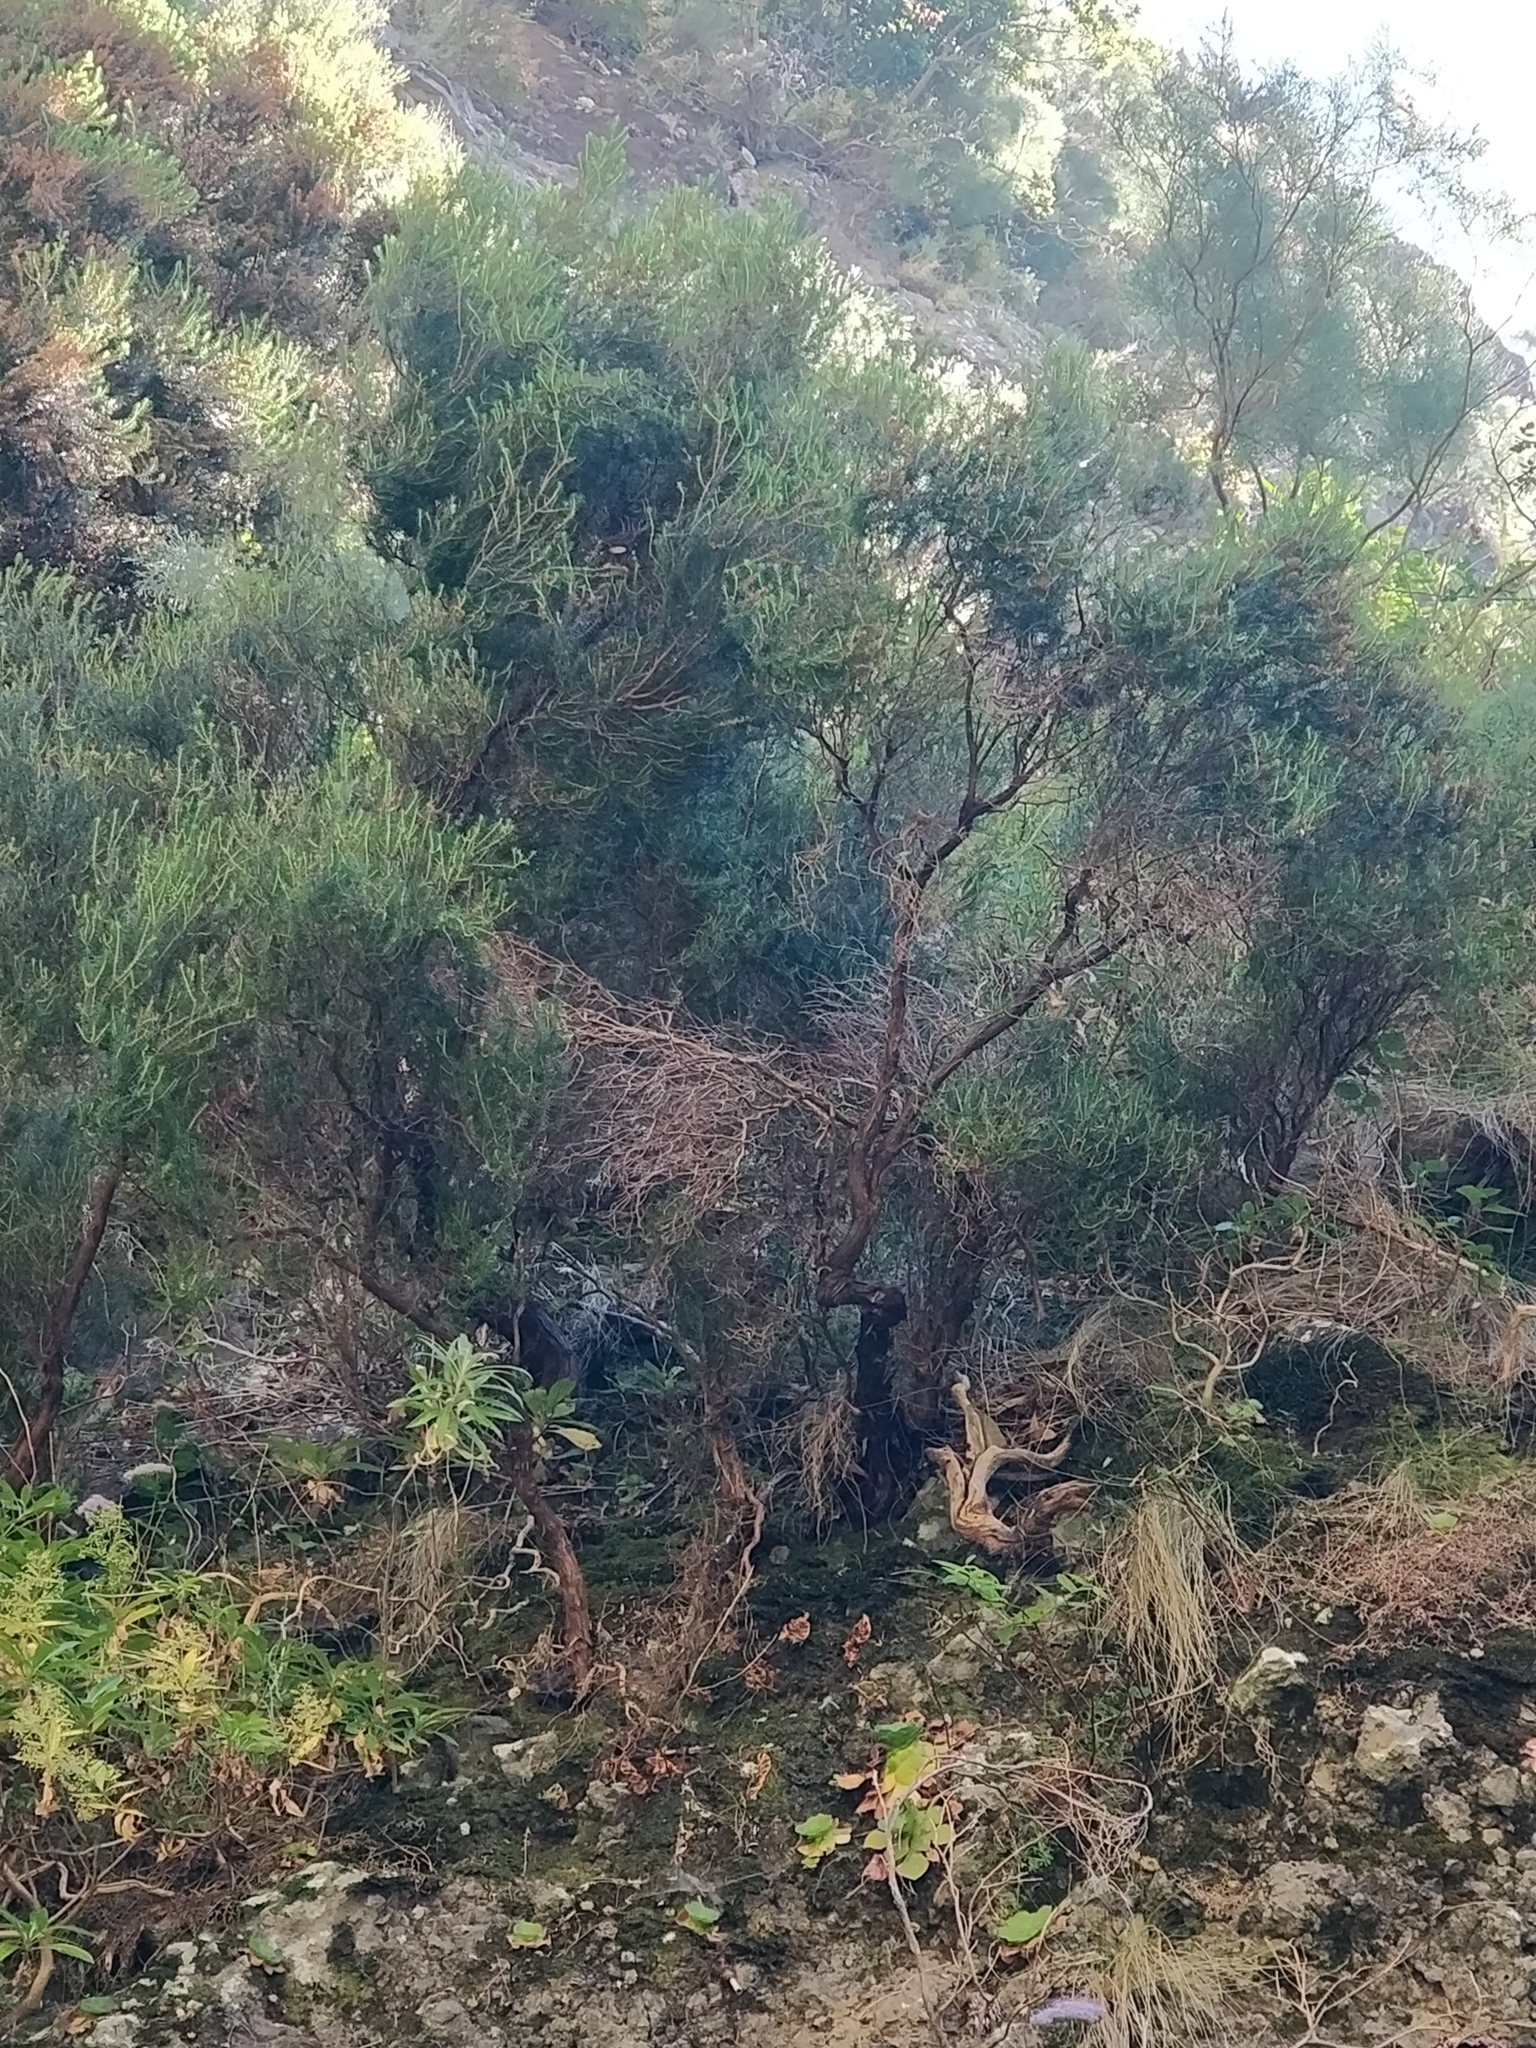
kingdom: Plantae
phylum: Tracheophyta
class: Magnoliopsida
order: Ericales
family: Ericaceae
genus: Erica
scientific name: Erica platycodon
